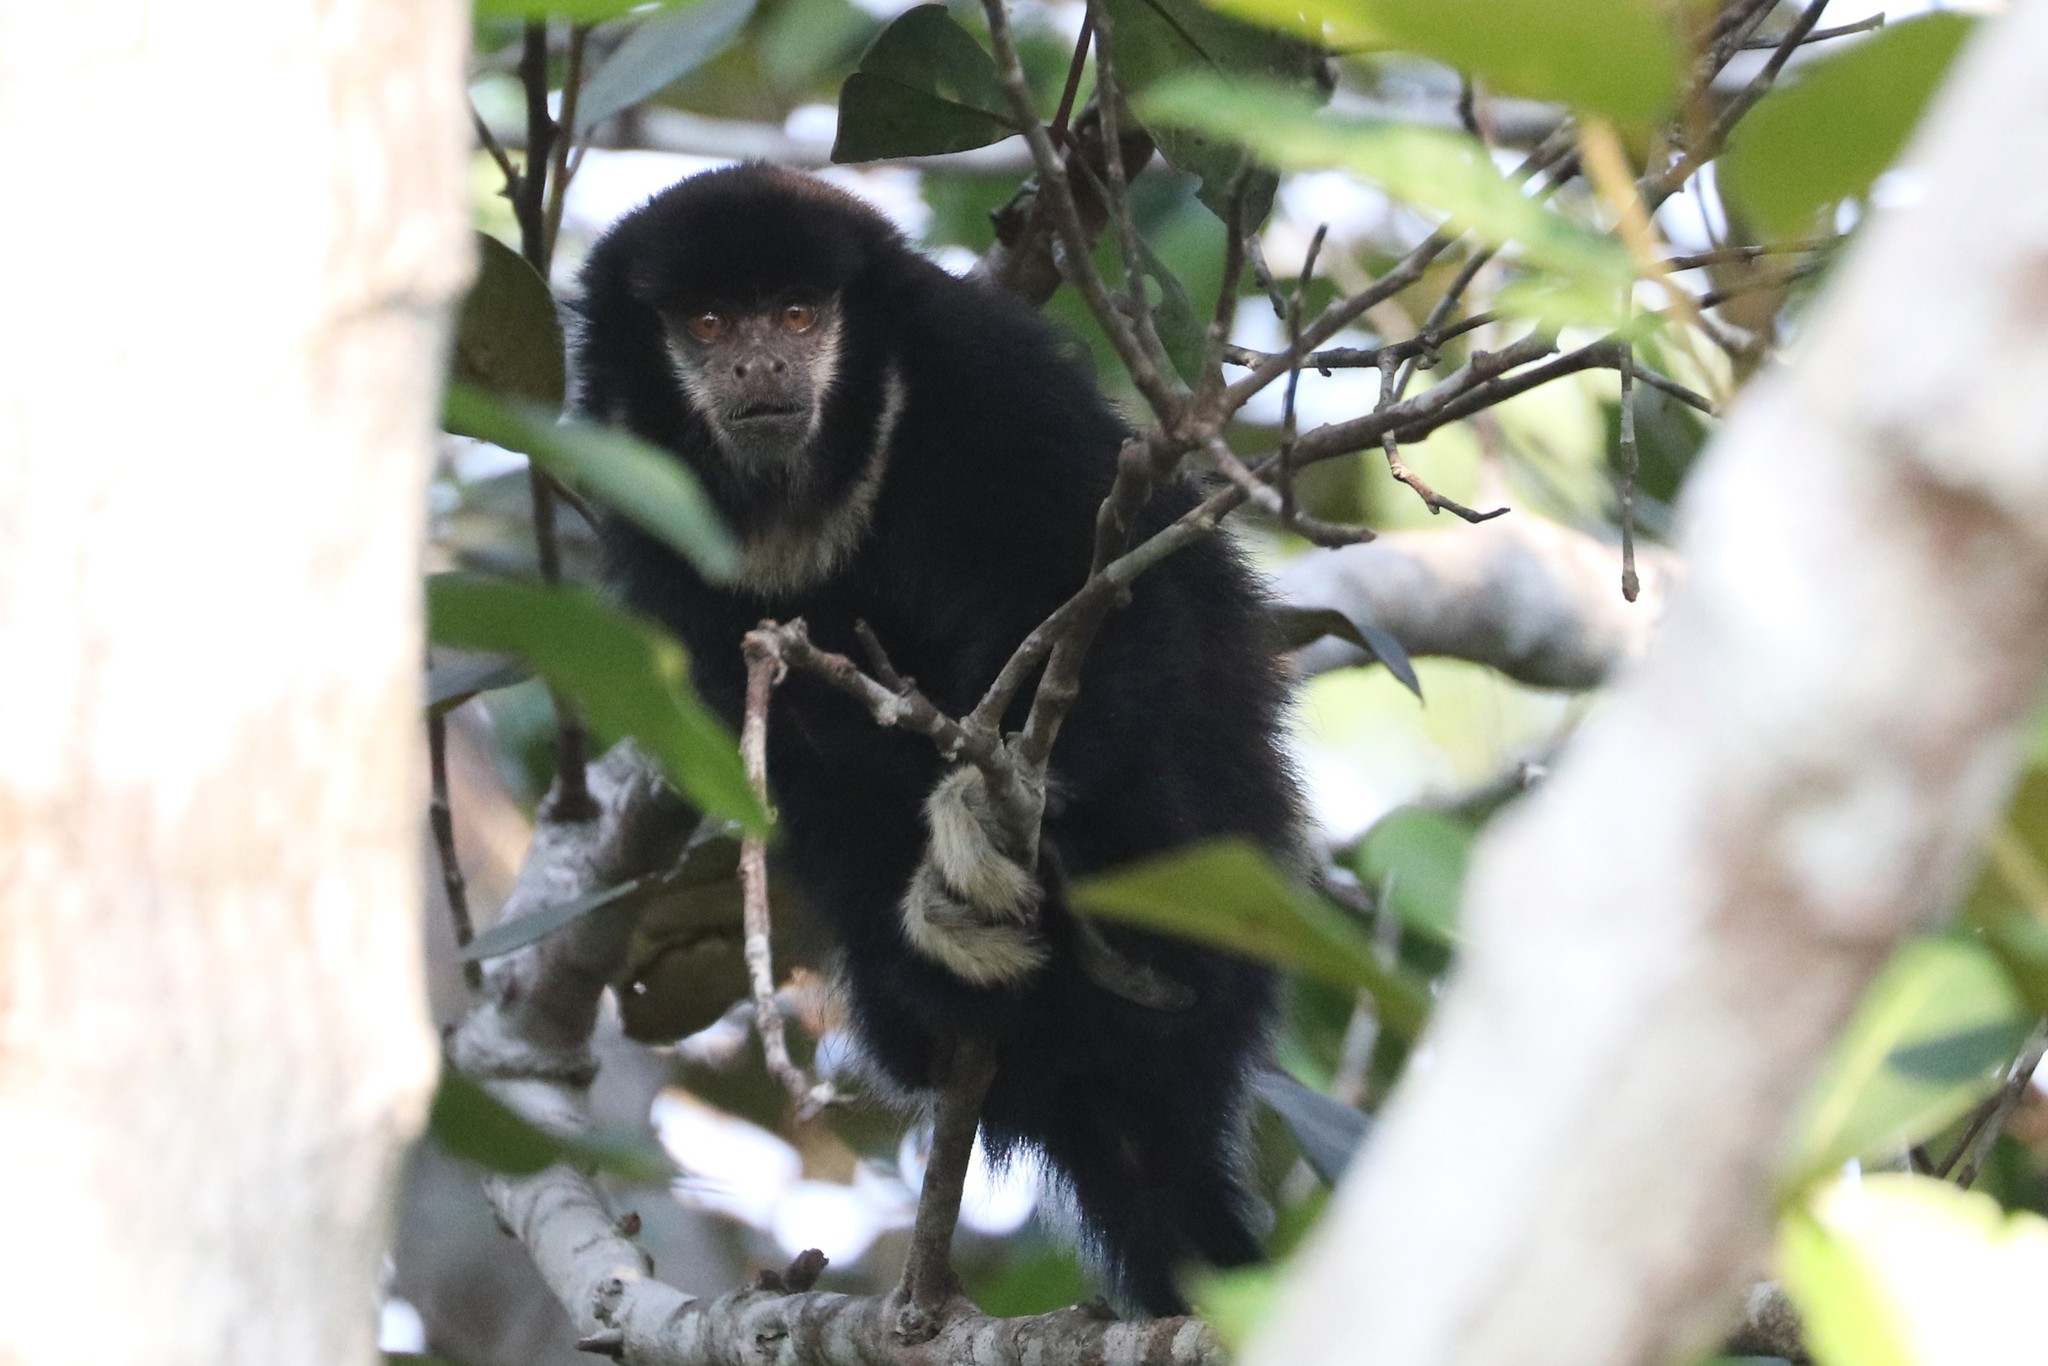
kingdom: Animalia
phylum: Chordata
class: Mammalia
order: Primates
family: Pitheciidae
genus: Cheracebus
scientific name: Cheracebus lugens
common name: Widow monkey
